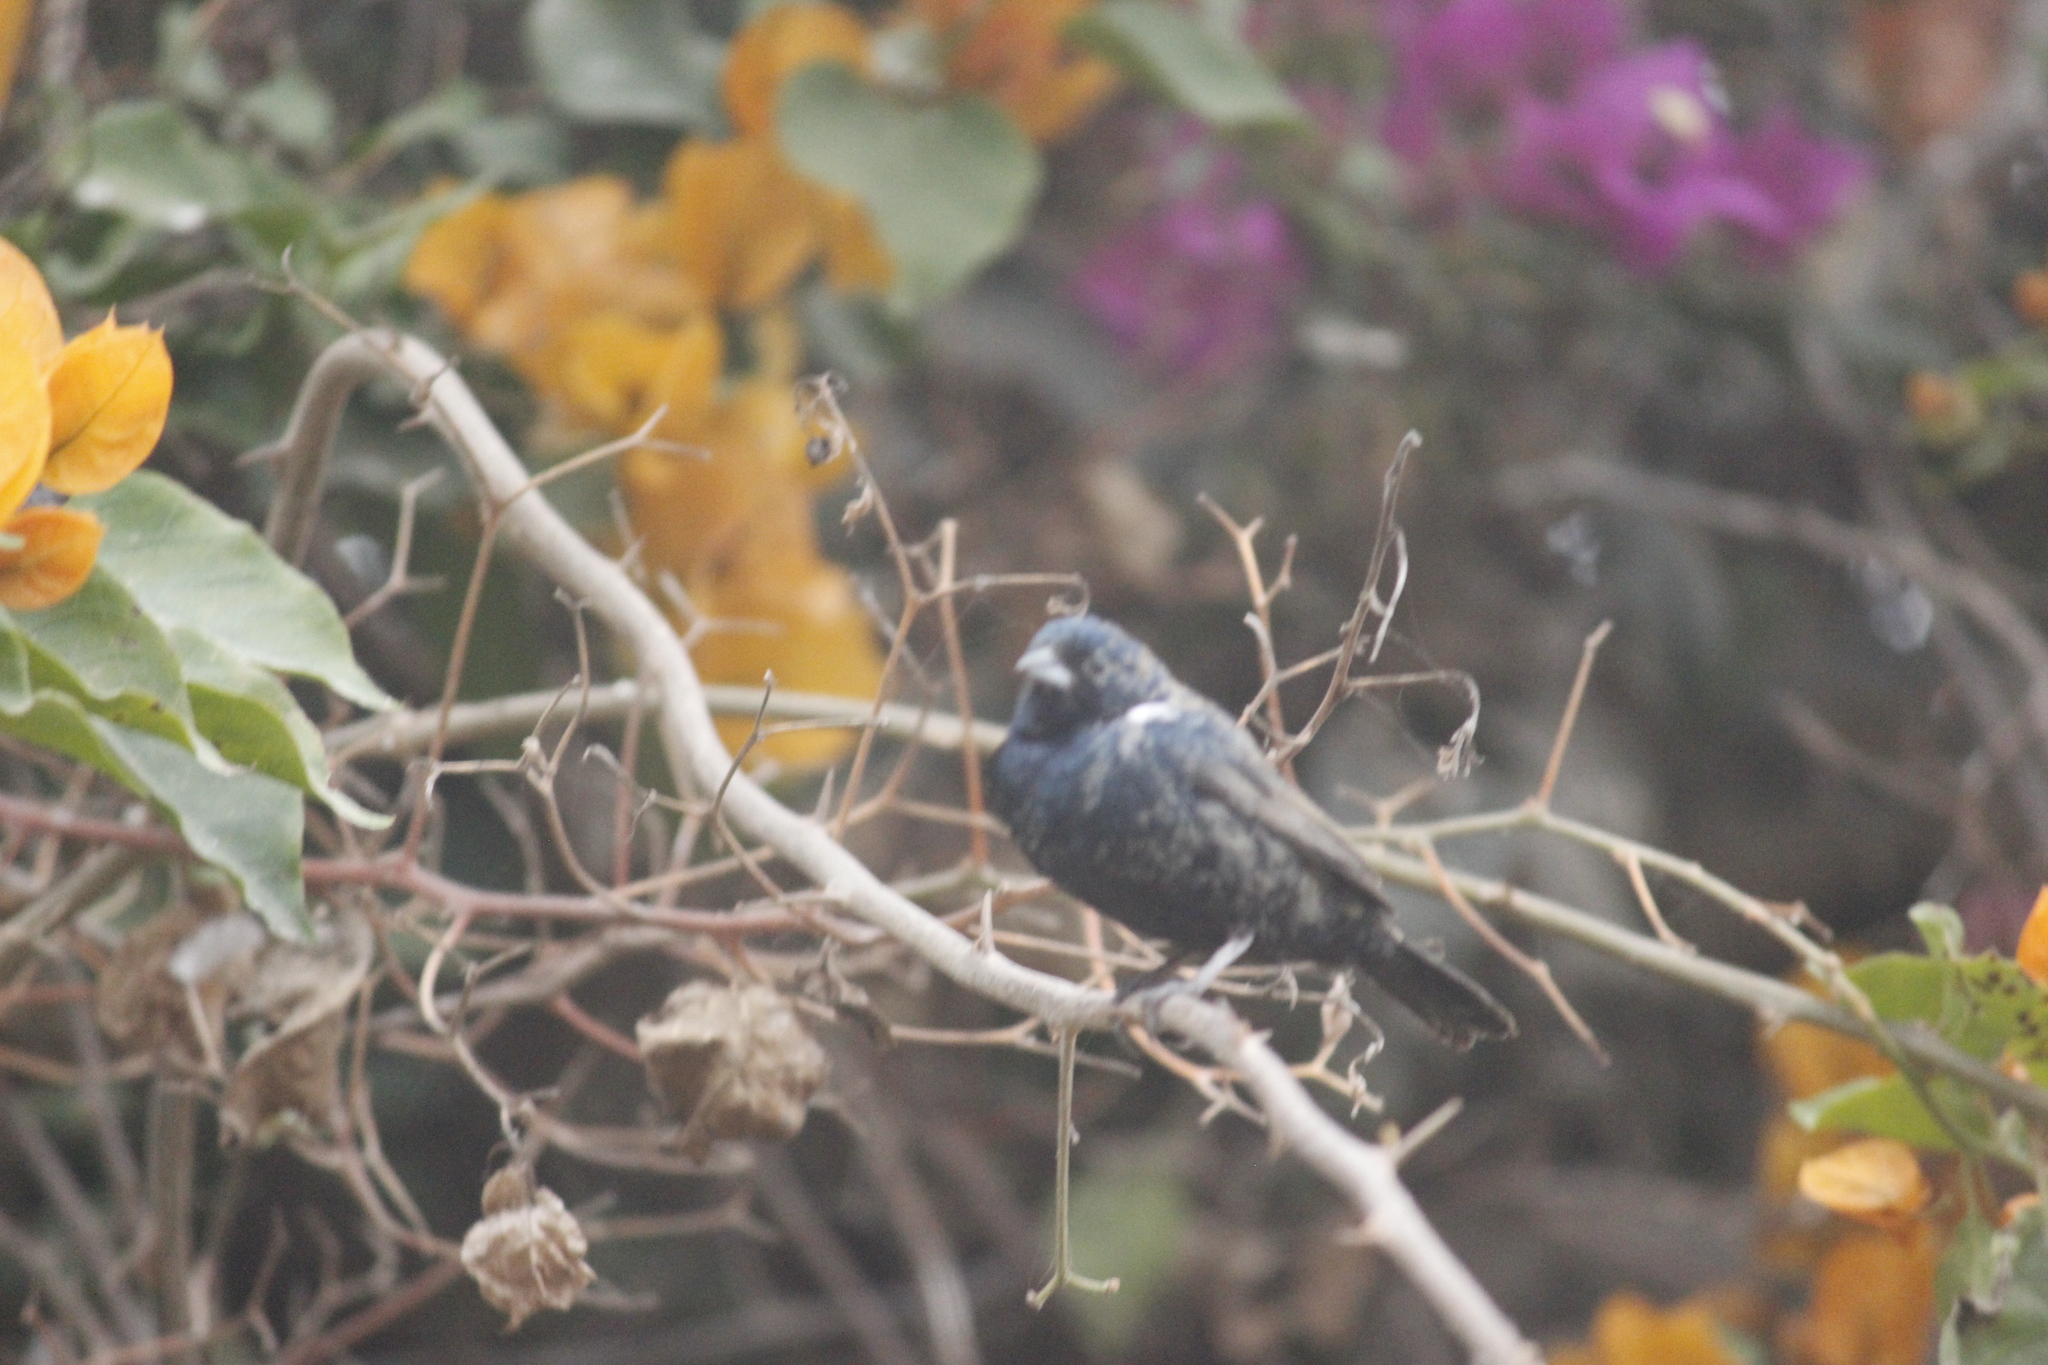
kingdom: Animalia
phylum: Chordata
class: Aves
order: Passeriformes
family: Thraupidae
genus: Volatinia
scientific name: Volatinia jacarina
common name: Blue-black grassquit
